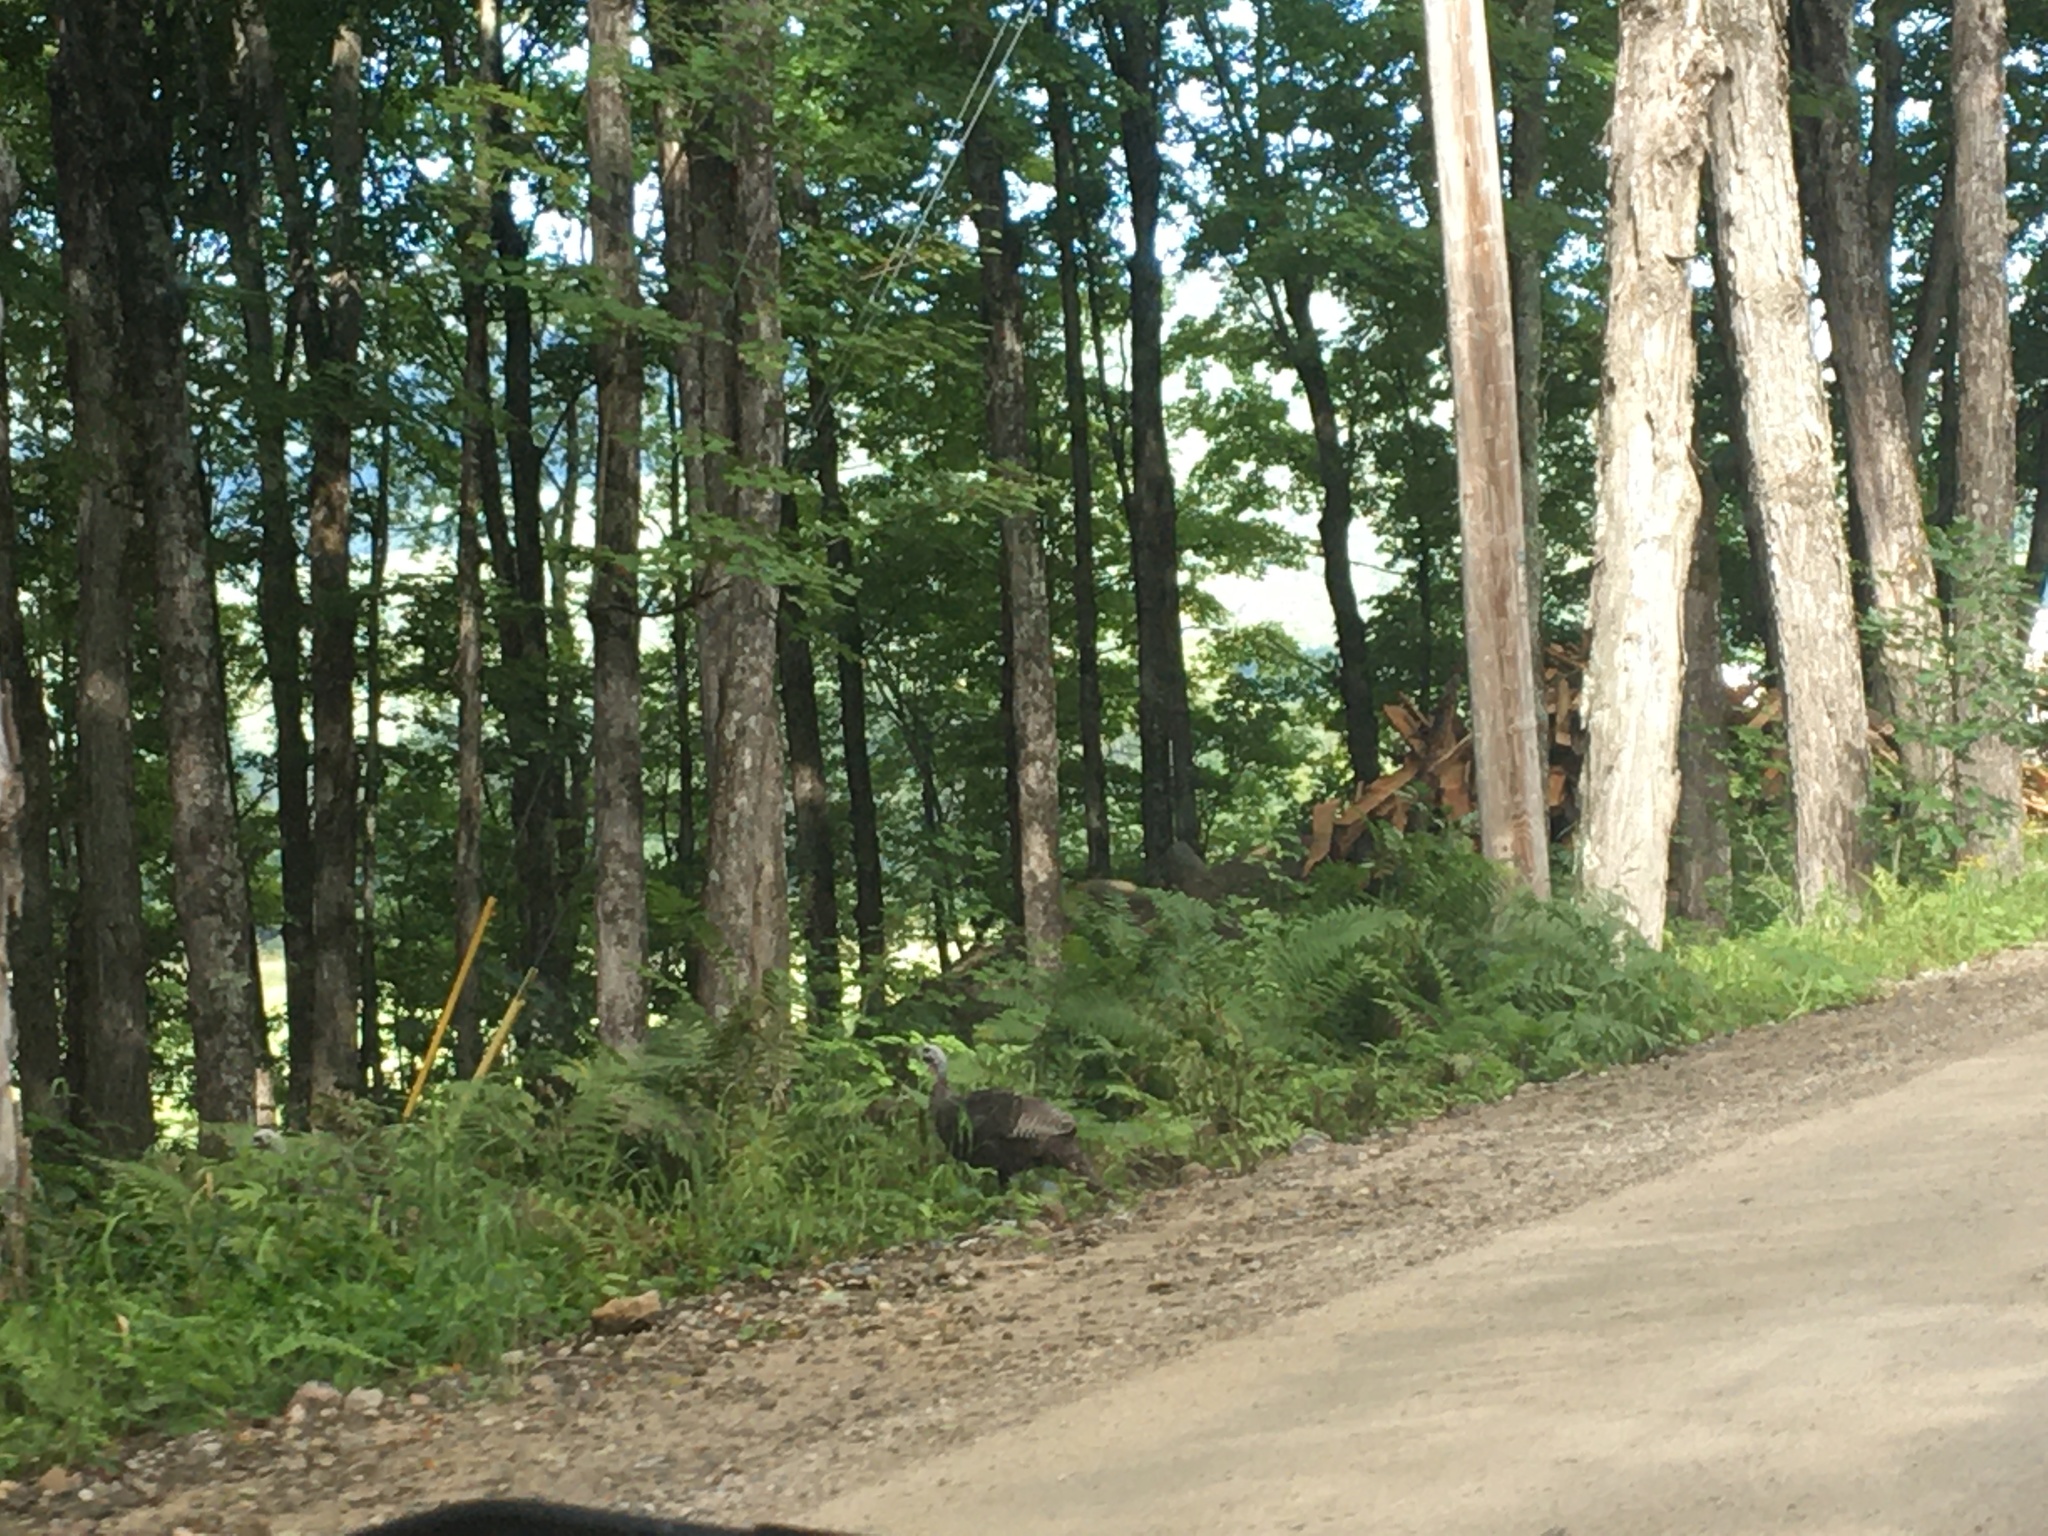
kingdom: Animalia
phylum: Chordata
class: Aves
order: Galliformes
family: Phasianidae
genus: Meleagris
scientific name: Meleagris gallopavo
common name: Wild turkey
